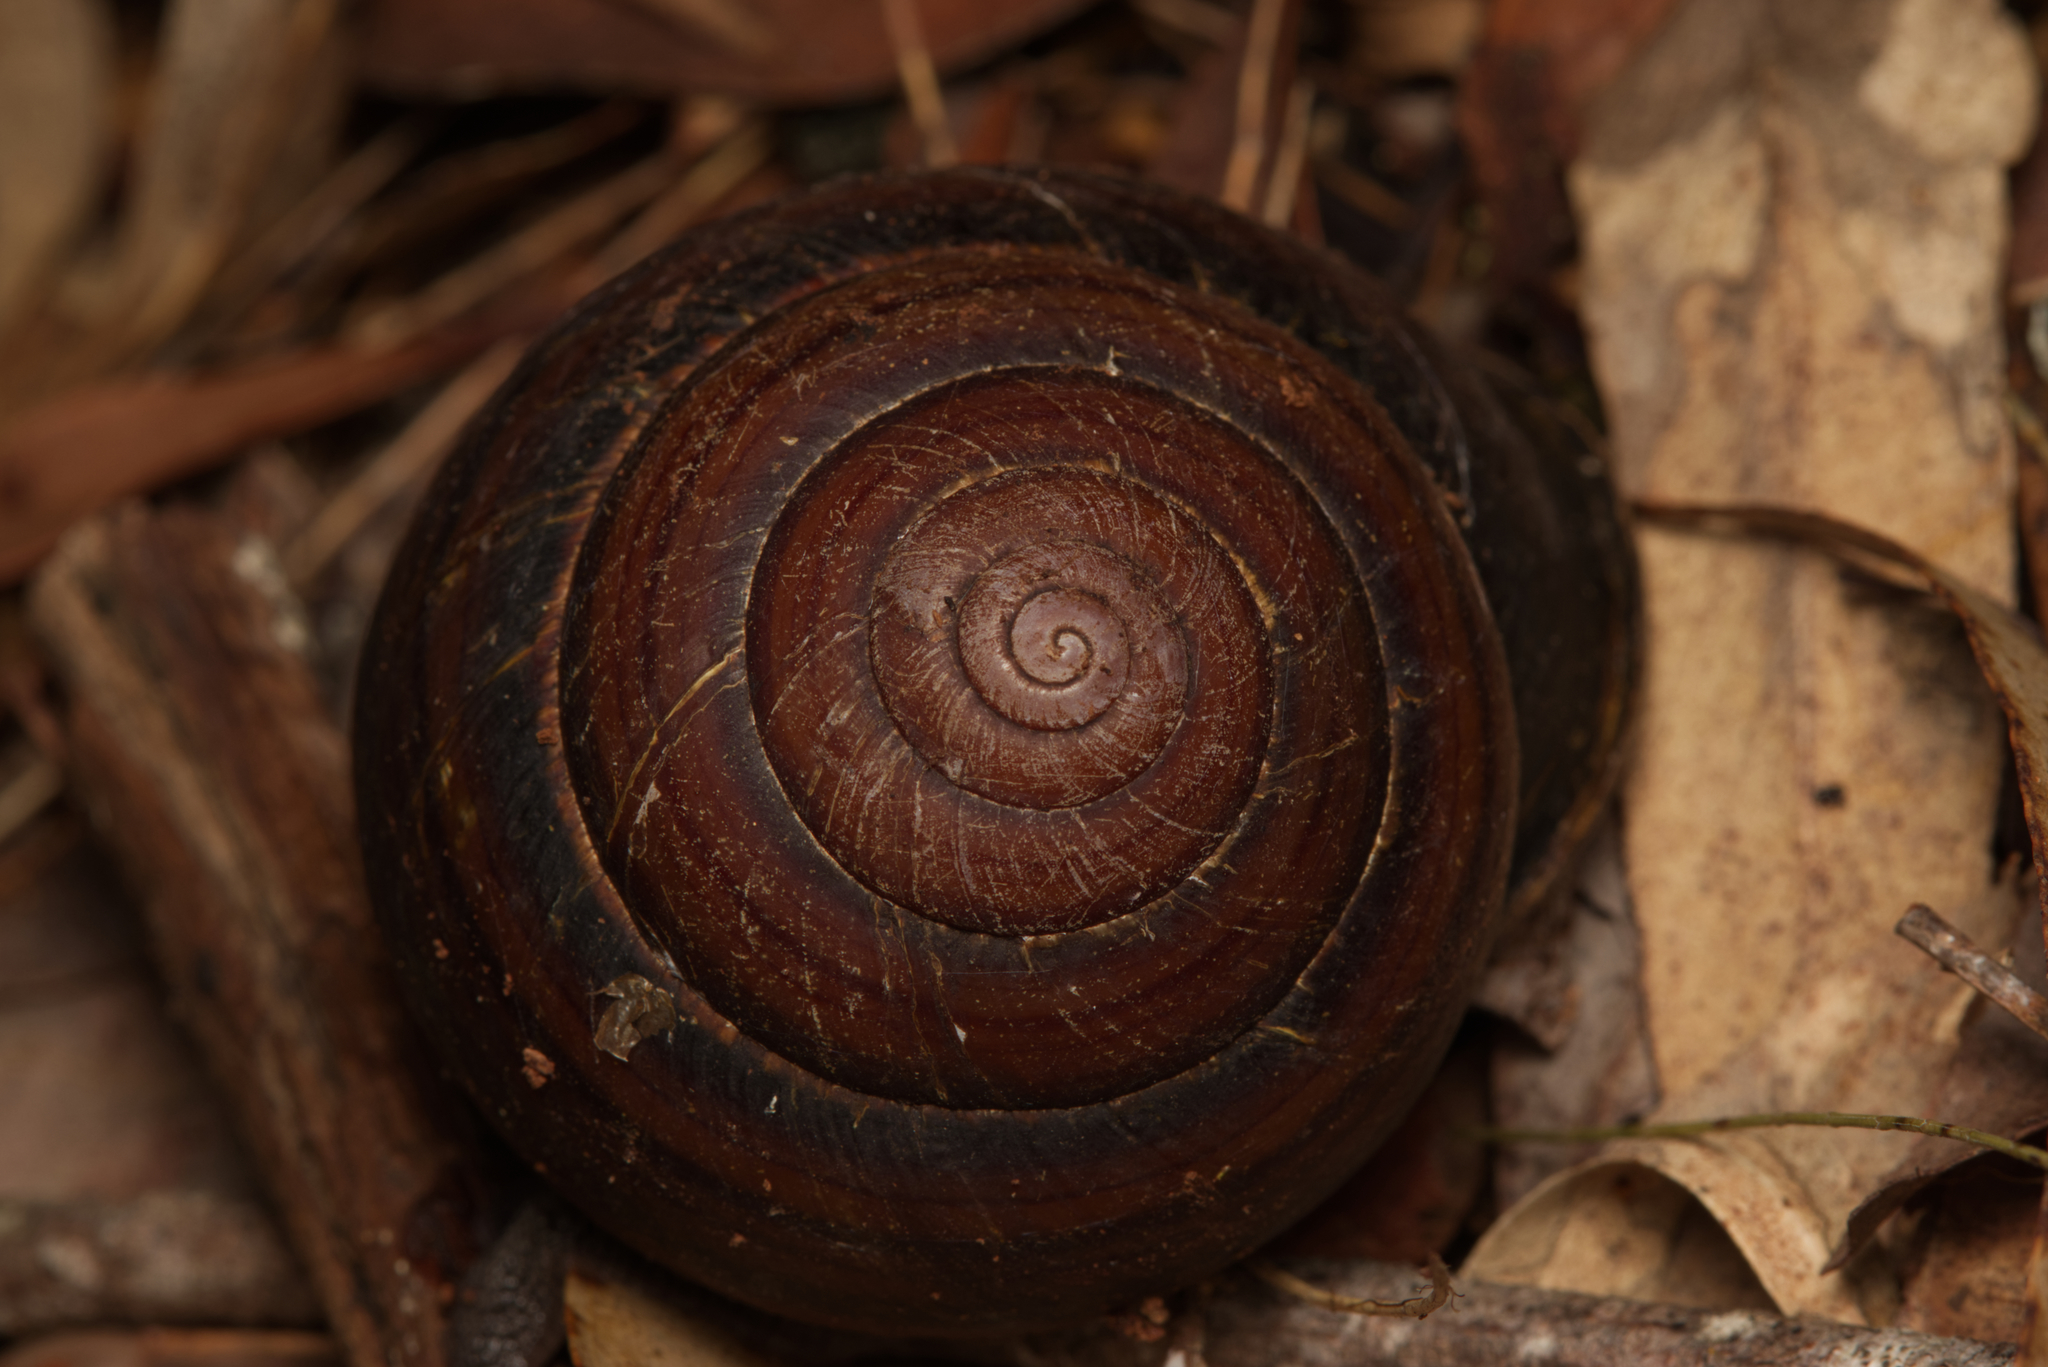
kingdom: Animalia
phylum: Mollusca
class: Gastropoda
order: Stylommatophora
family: Camaenidae
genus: Sphaerospira
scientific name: Sphaerospira fraseri
